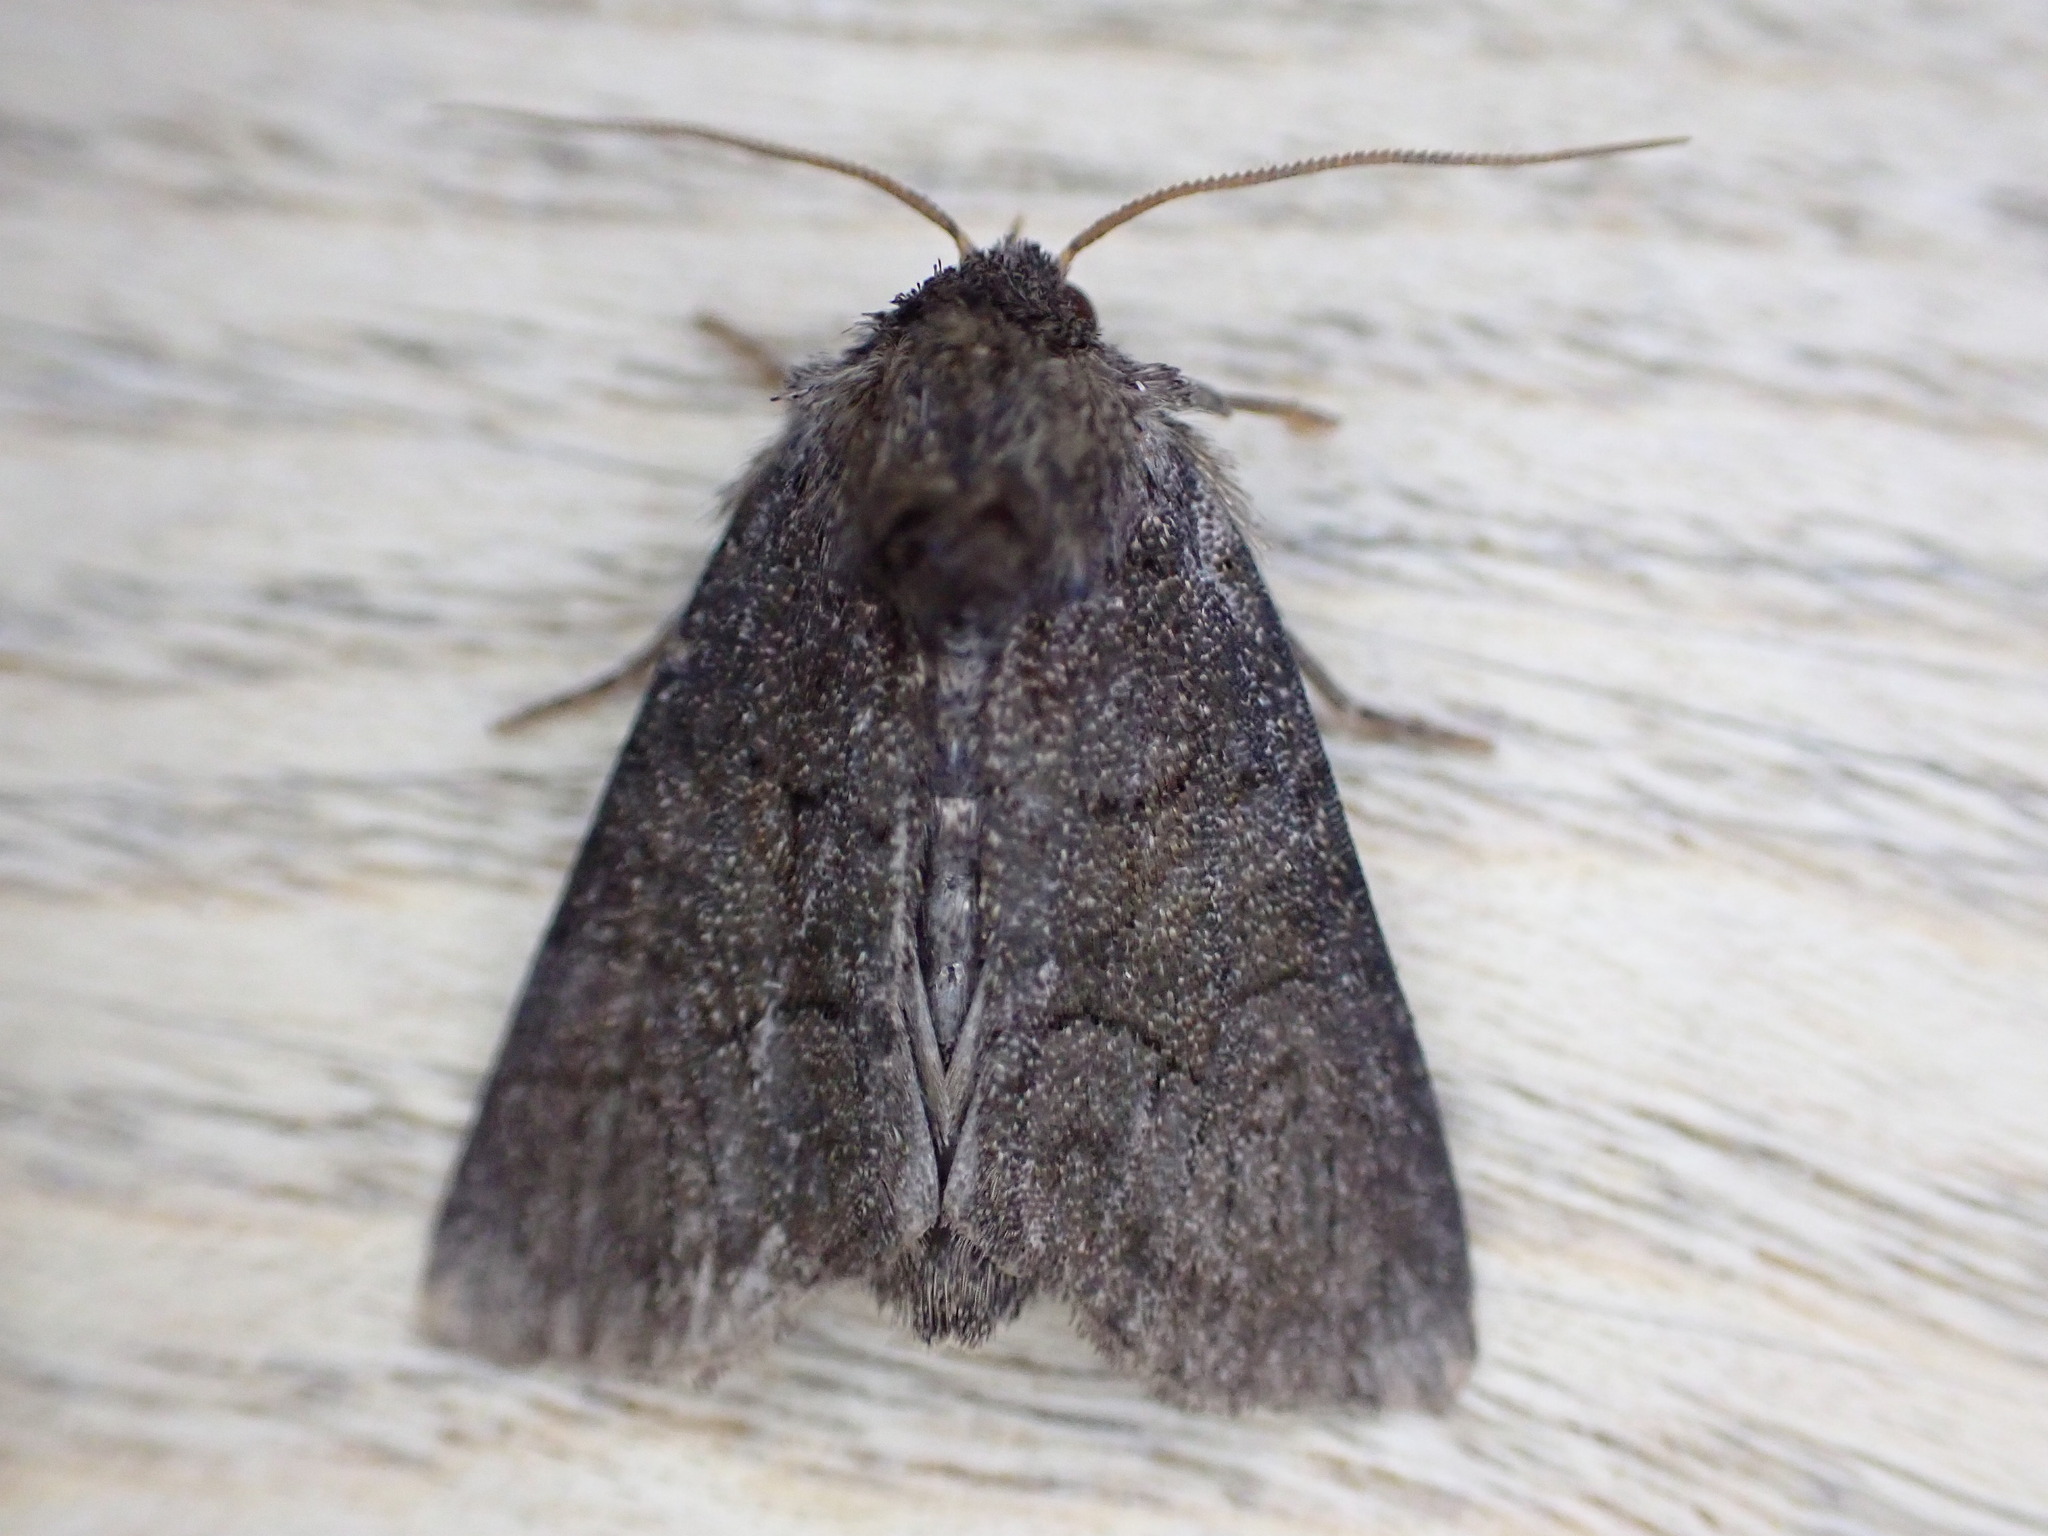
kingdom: Animalia
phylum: Arthropoda
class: Insecta
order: Lepidoptera
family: Noctuidae
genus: Oligia
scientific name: Oligia latruncula
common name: Tawny marbled minor
